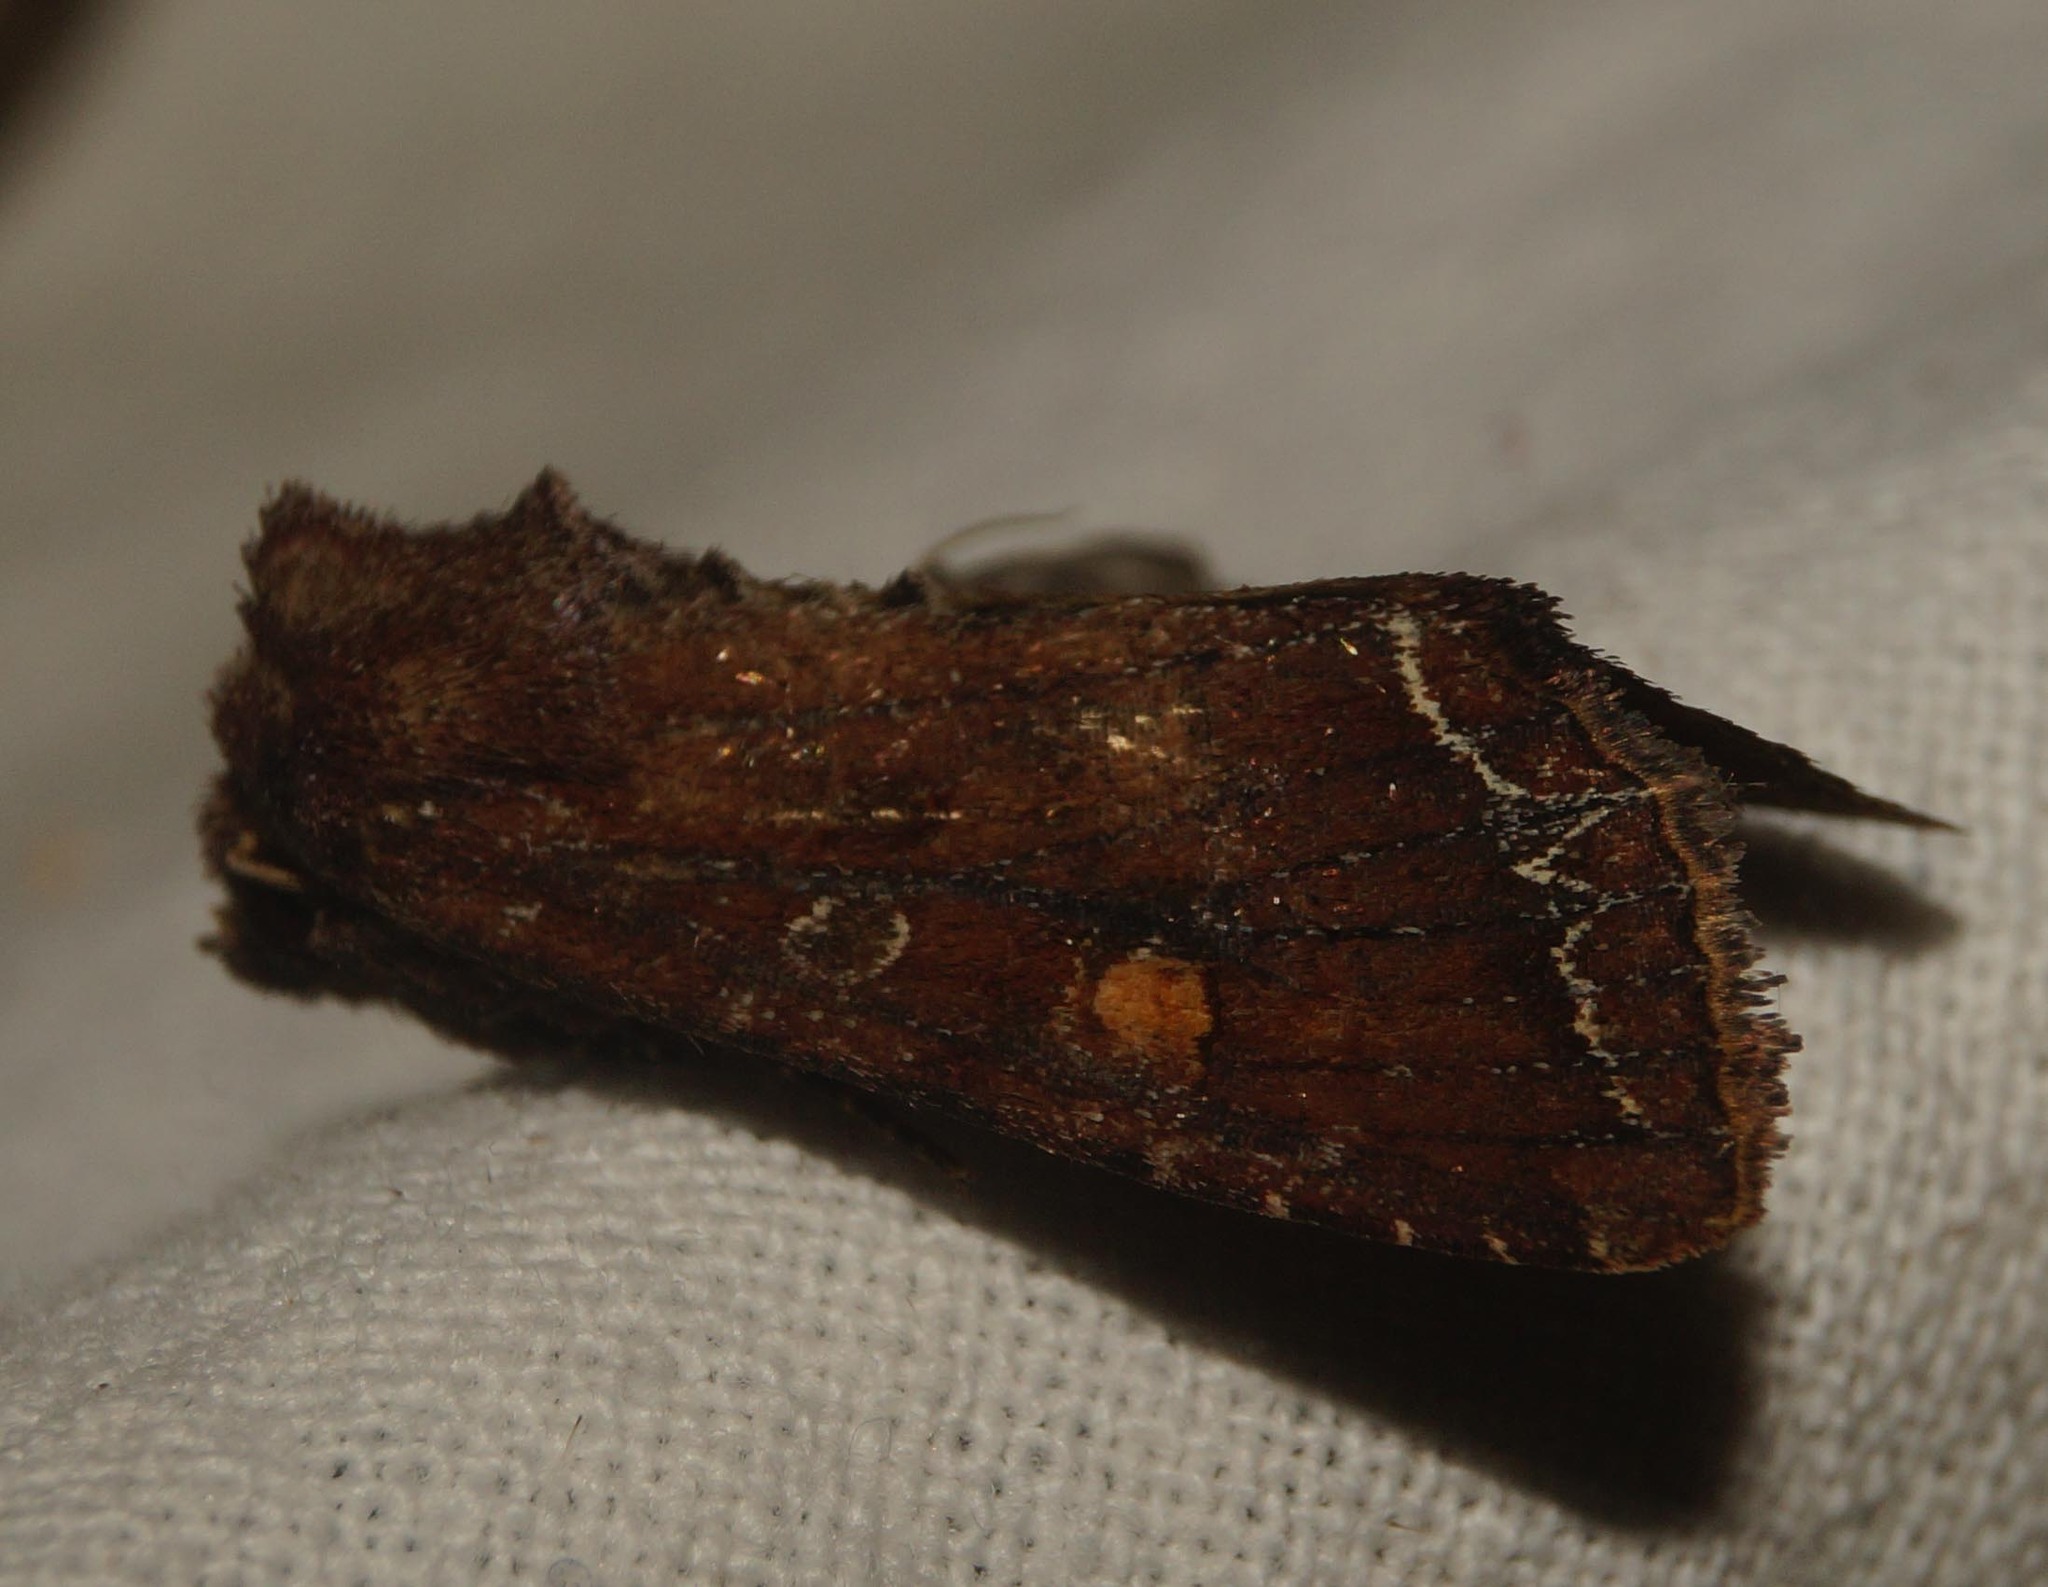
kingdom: Animalia
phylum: Arthropoda
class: Insecta
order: Lepidoptera
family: Noctuidae
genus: Lacanobia
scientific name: Lacanobia oleracea
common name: Bright-line brown-eye
